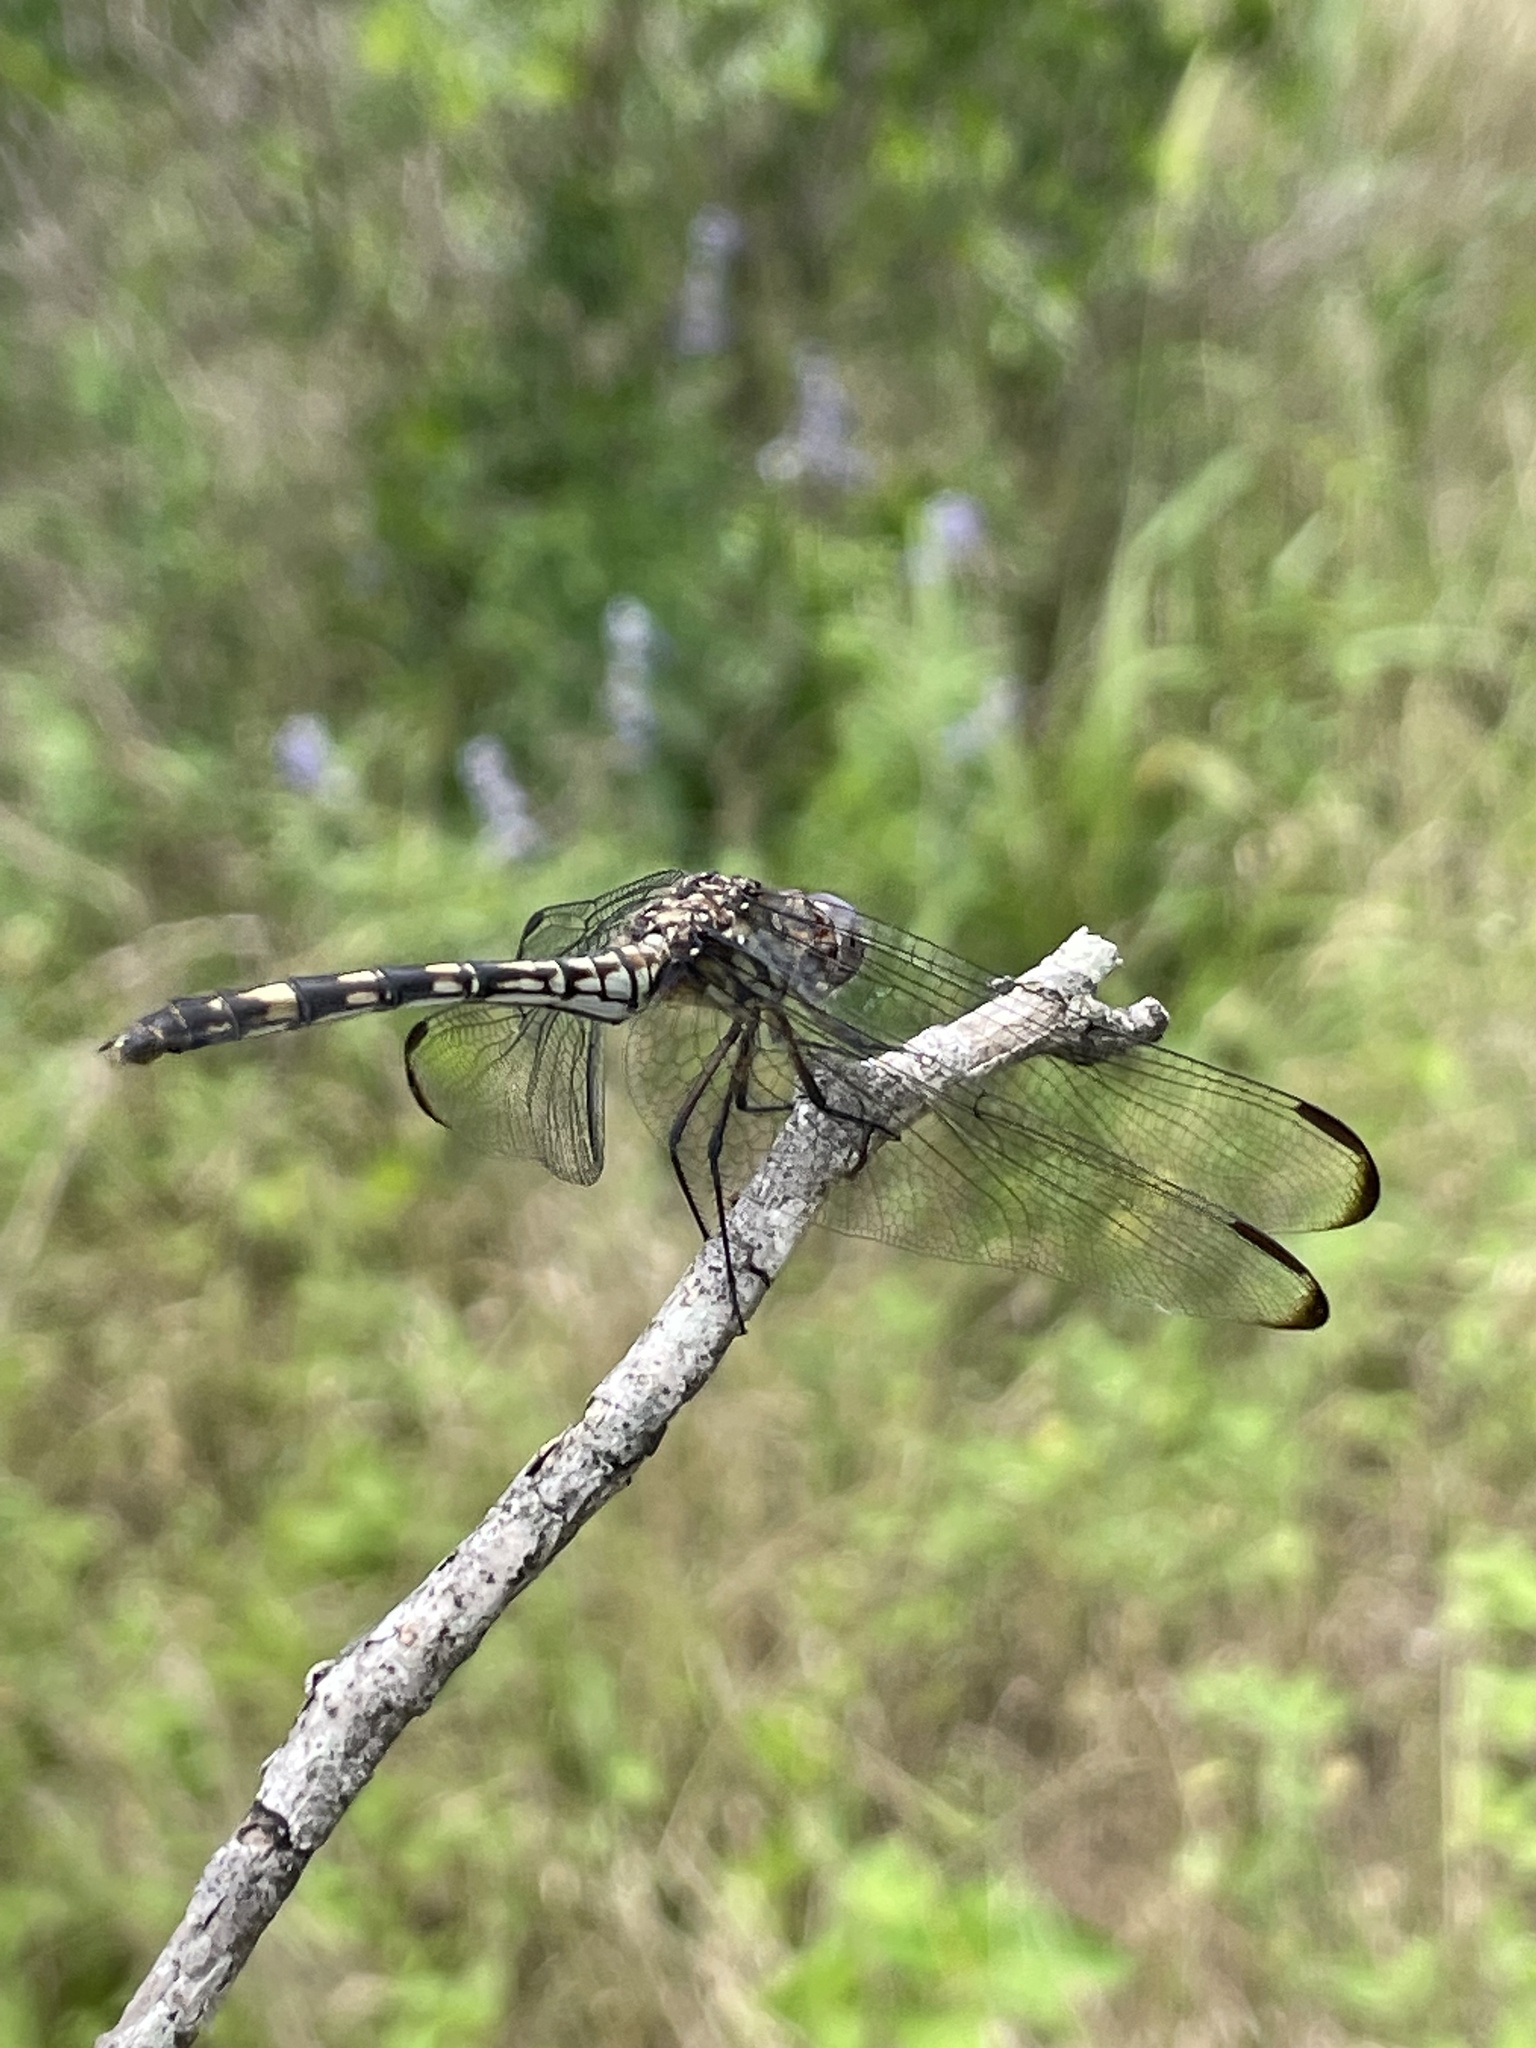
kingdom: Animalia
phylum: Arthropoda
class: Insecta
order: Odonata
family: Libellulidae
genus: Dythemis
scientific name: Dythemis nigrescens
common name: Black setwing
